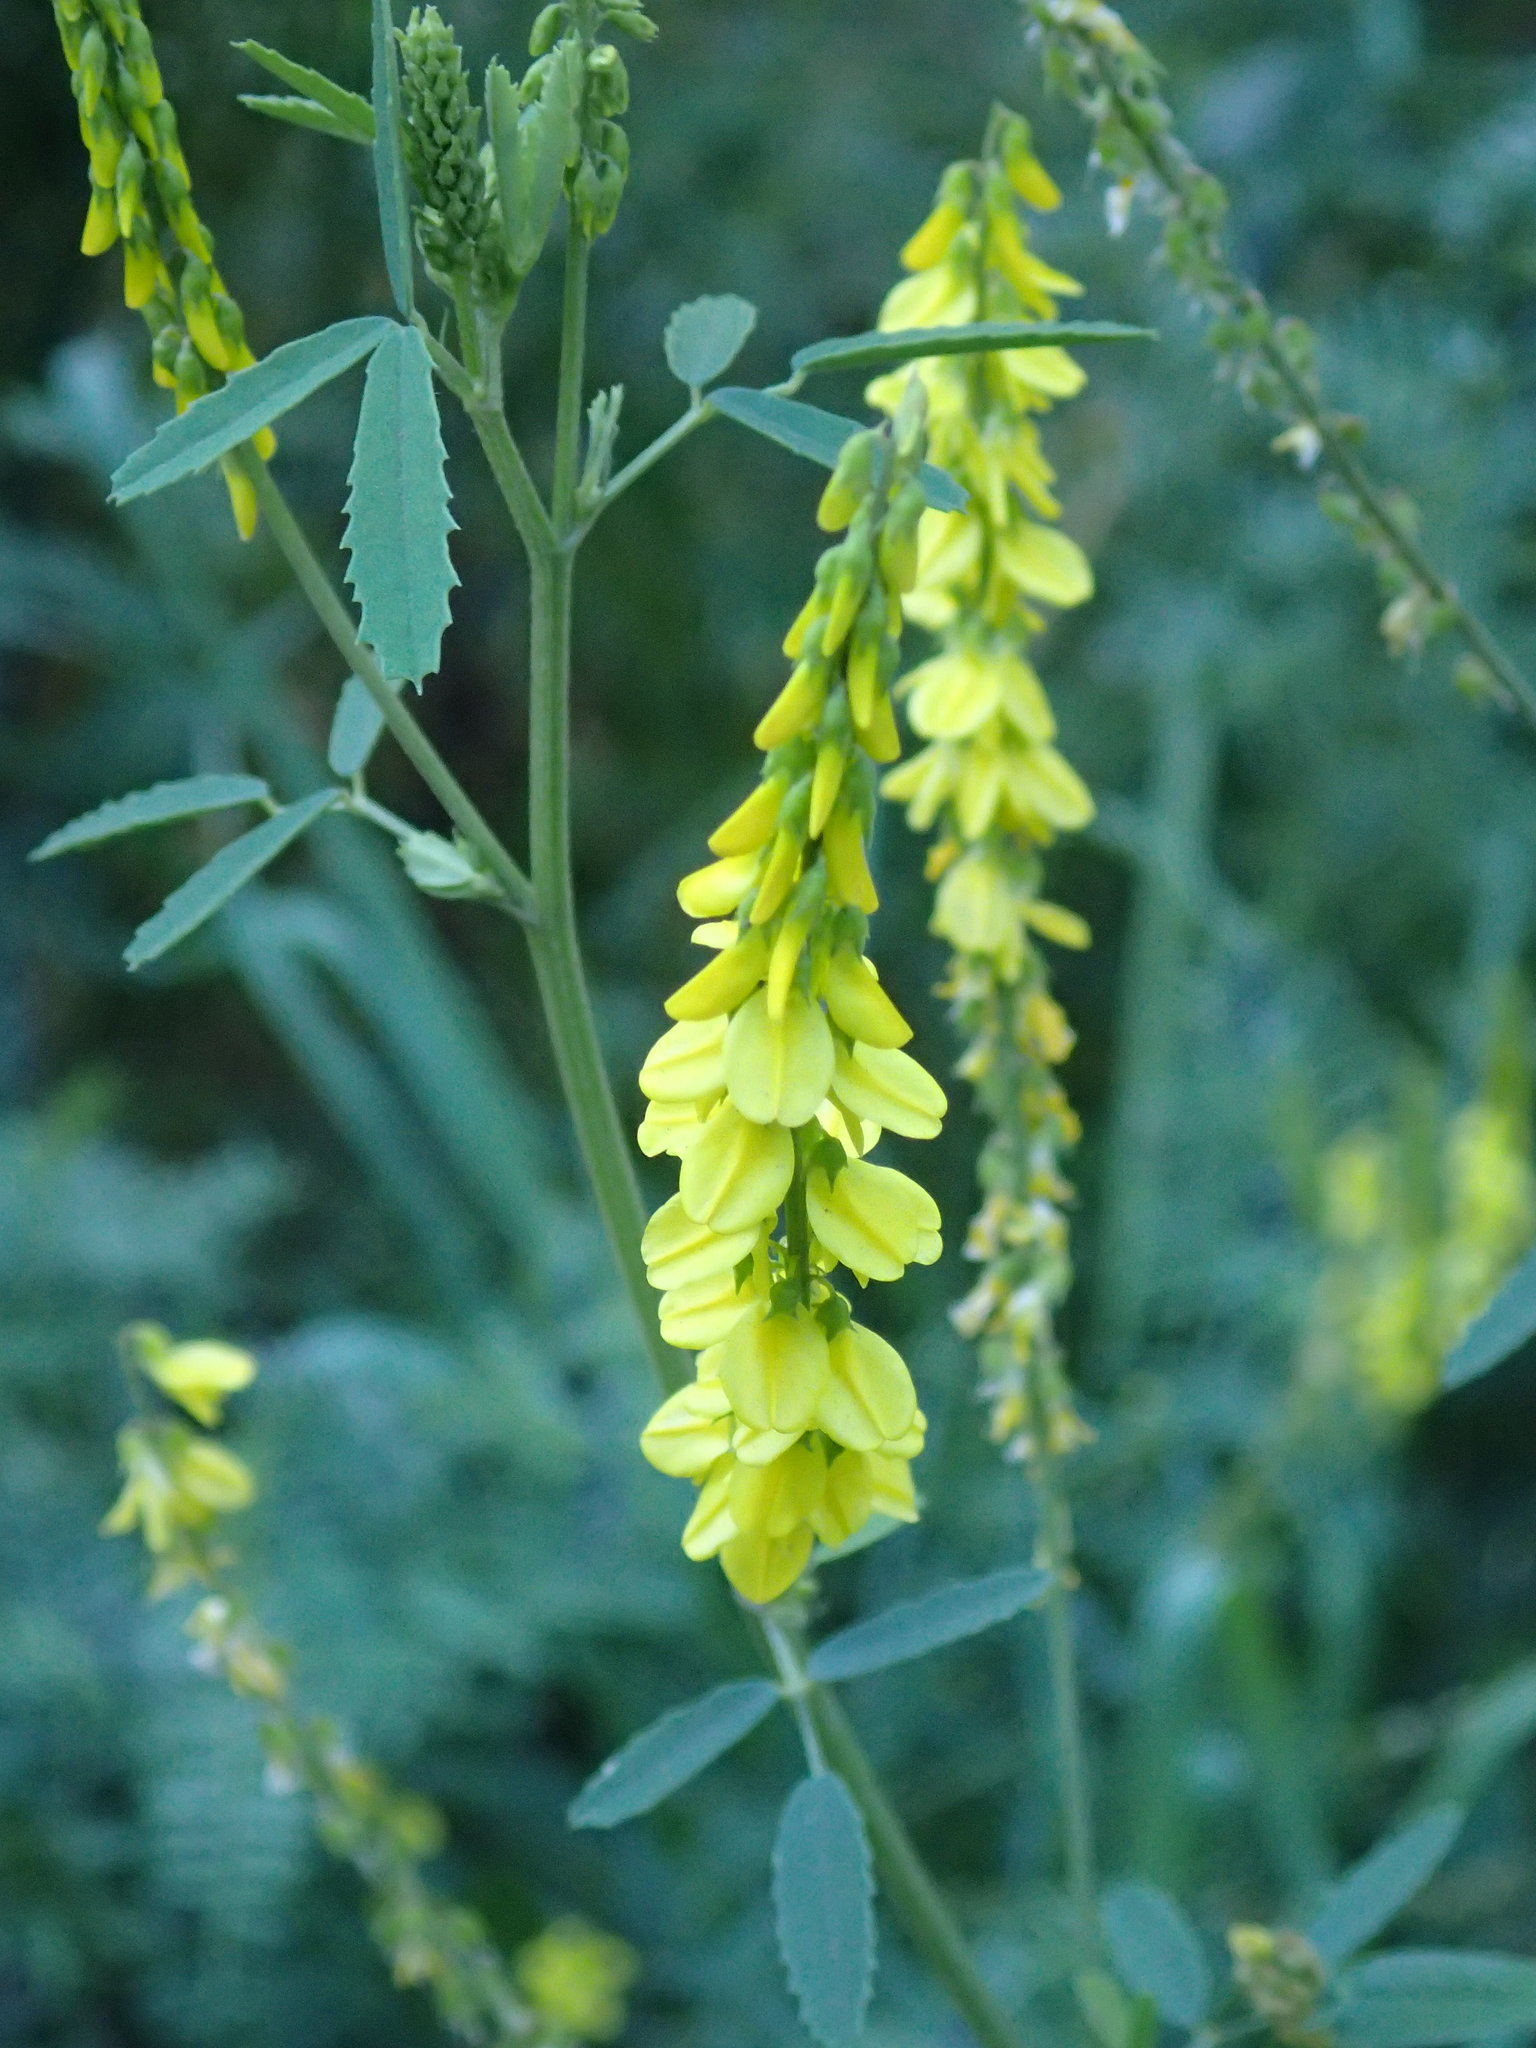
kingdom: Plantae
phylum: Tracheophyta
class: Magnoliopsida
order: Fabales
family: Fabaceae
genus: Melilotus
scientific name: Melilotus officinalis
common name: Sweetclover
